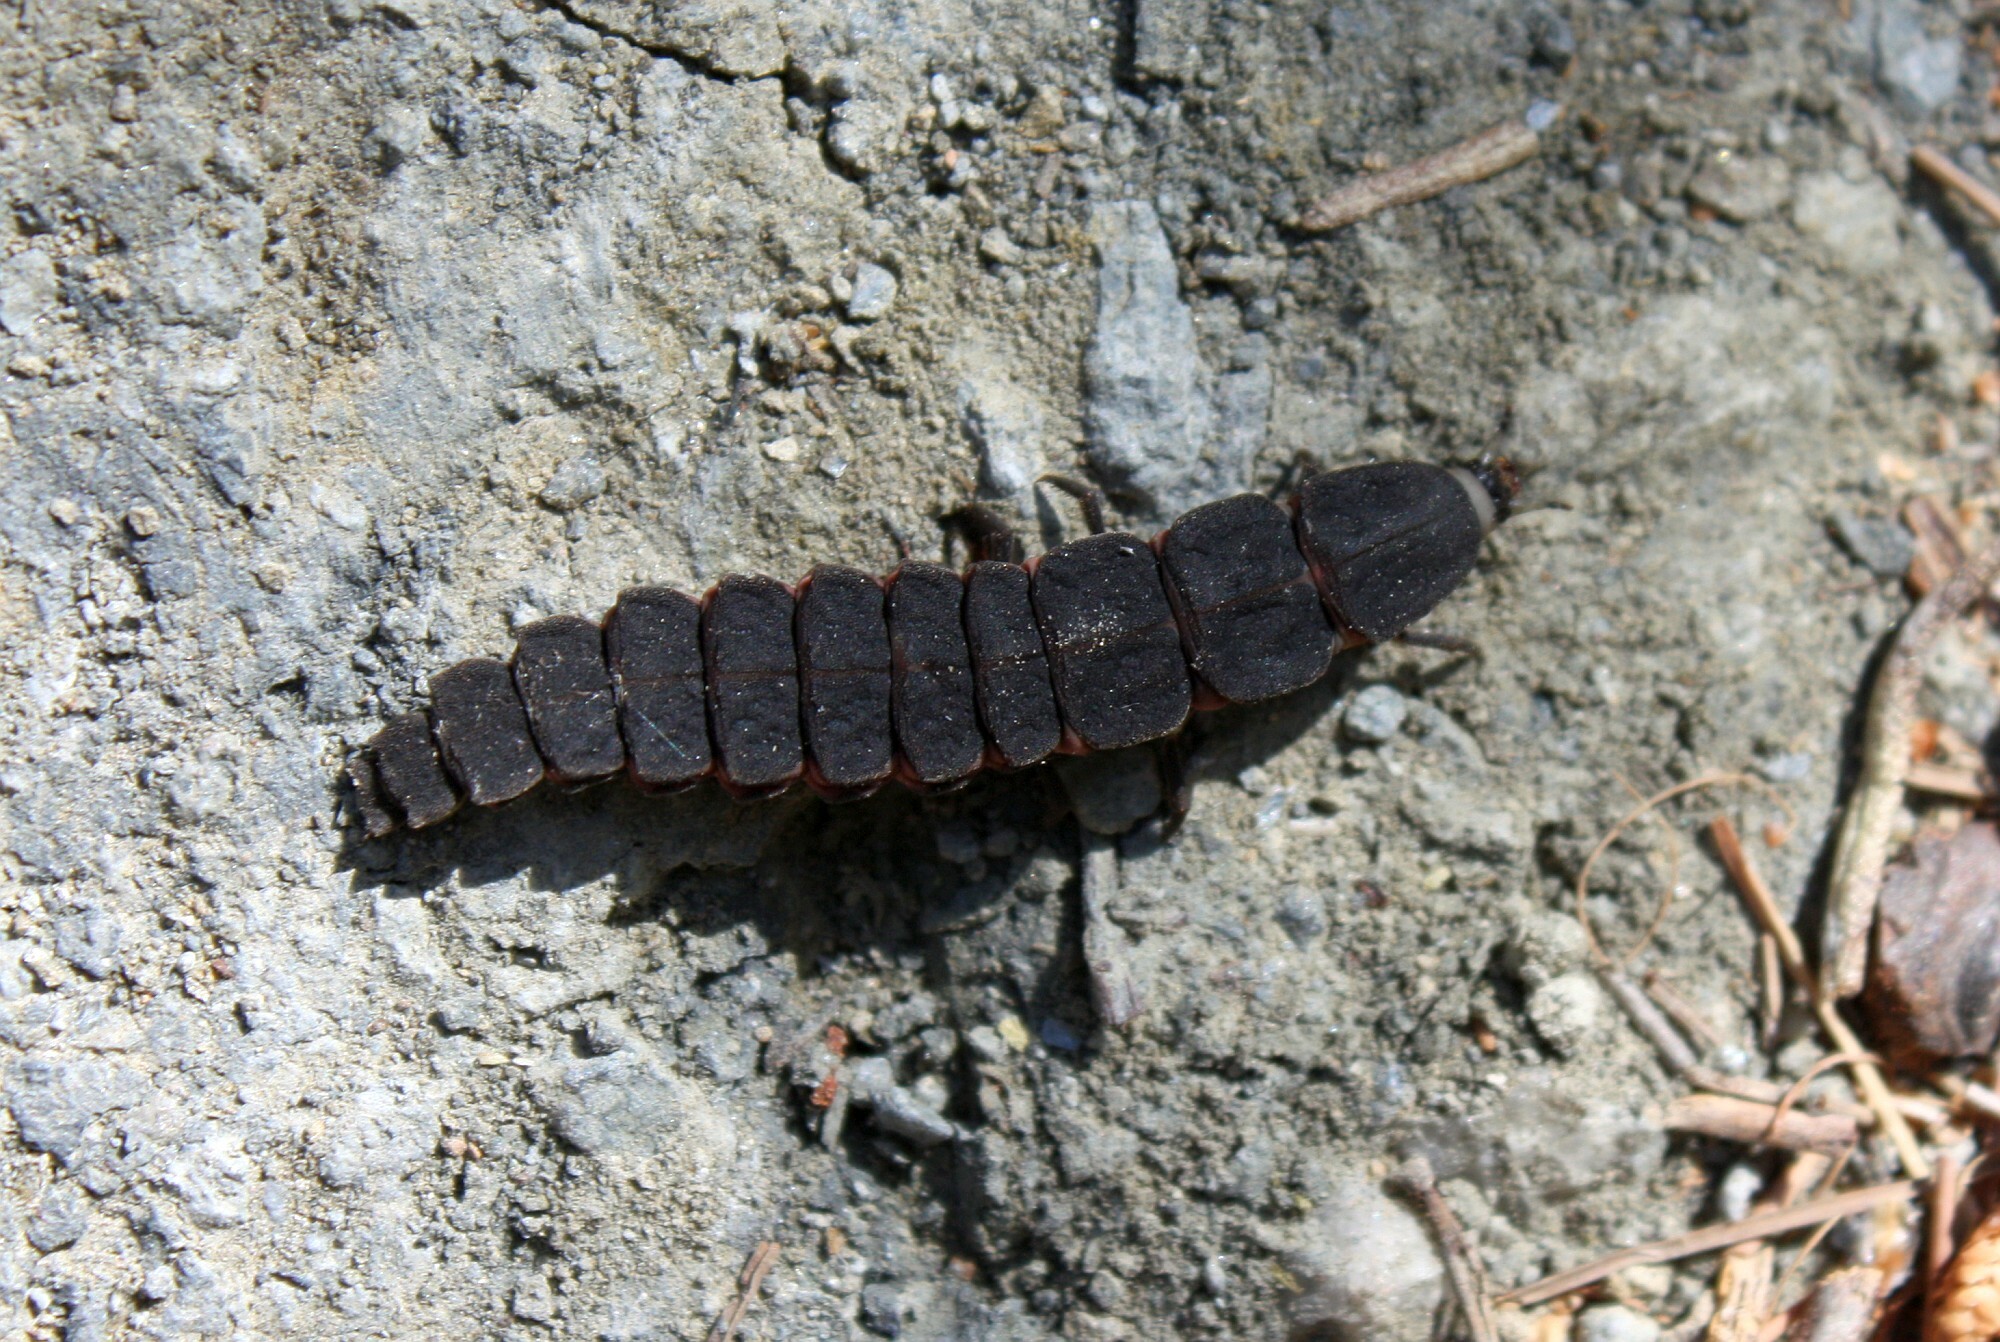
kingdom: Animalia
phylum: Arthropoda
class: Insecta
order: Coleoptera
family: Lampyridae
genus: Nyctophila
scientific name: Nyctophila reichii
